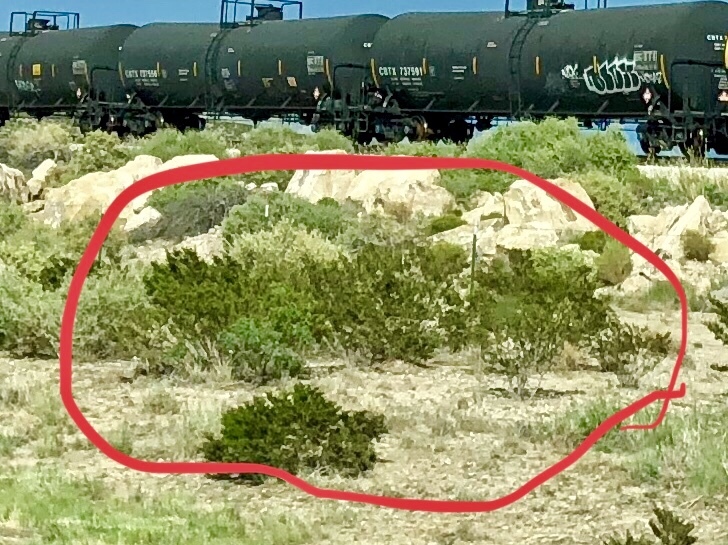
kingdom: Plantae
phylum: Tracheophyta
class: Magnoliopsida
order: Zygophyllales
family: Zygophyllaceae
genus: Larrea
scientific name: Larrea tridentata
